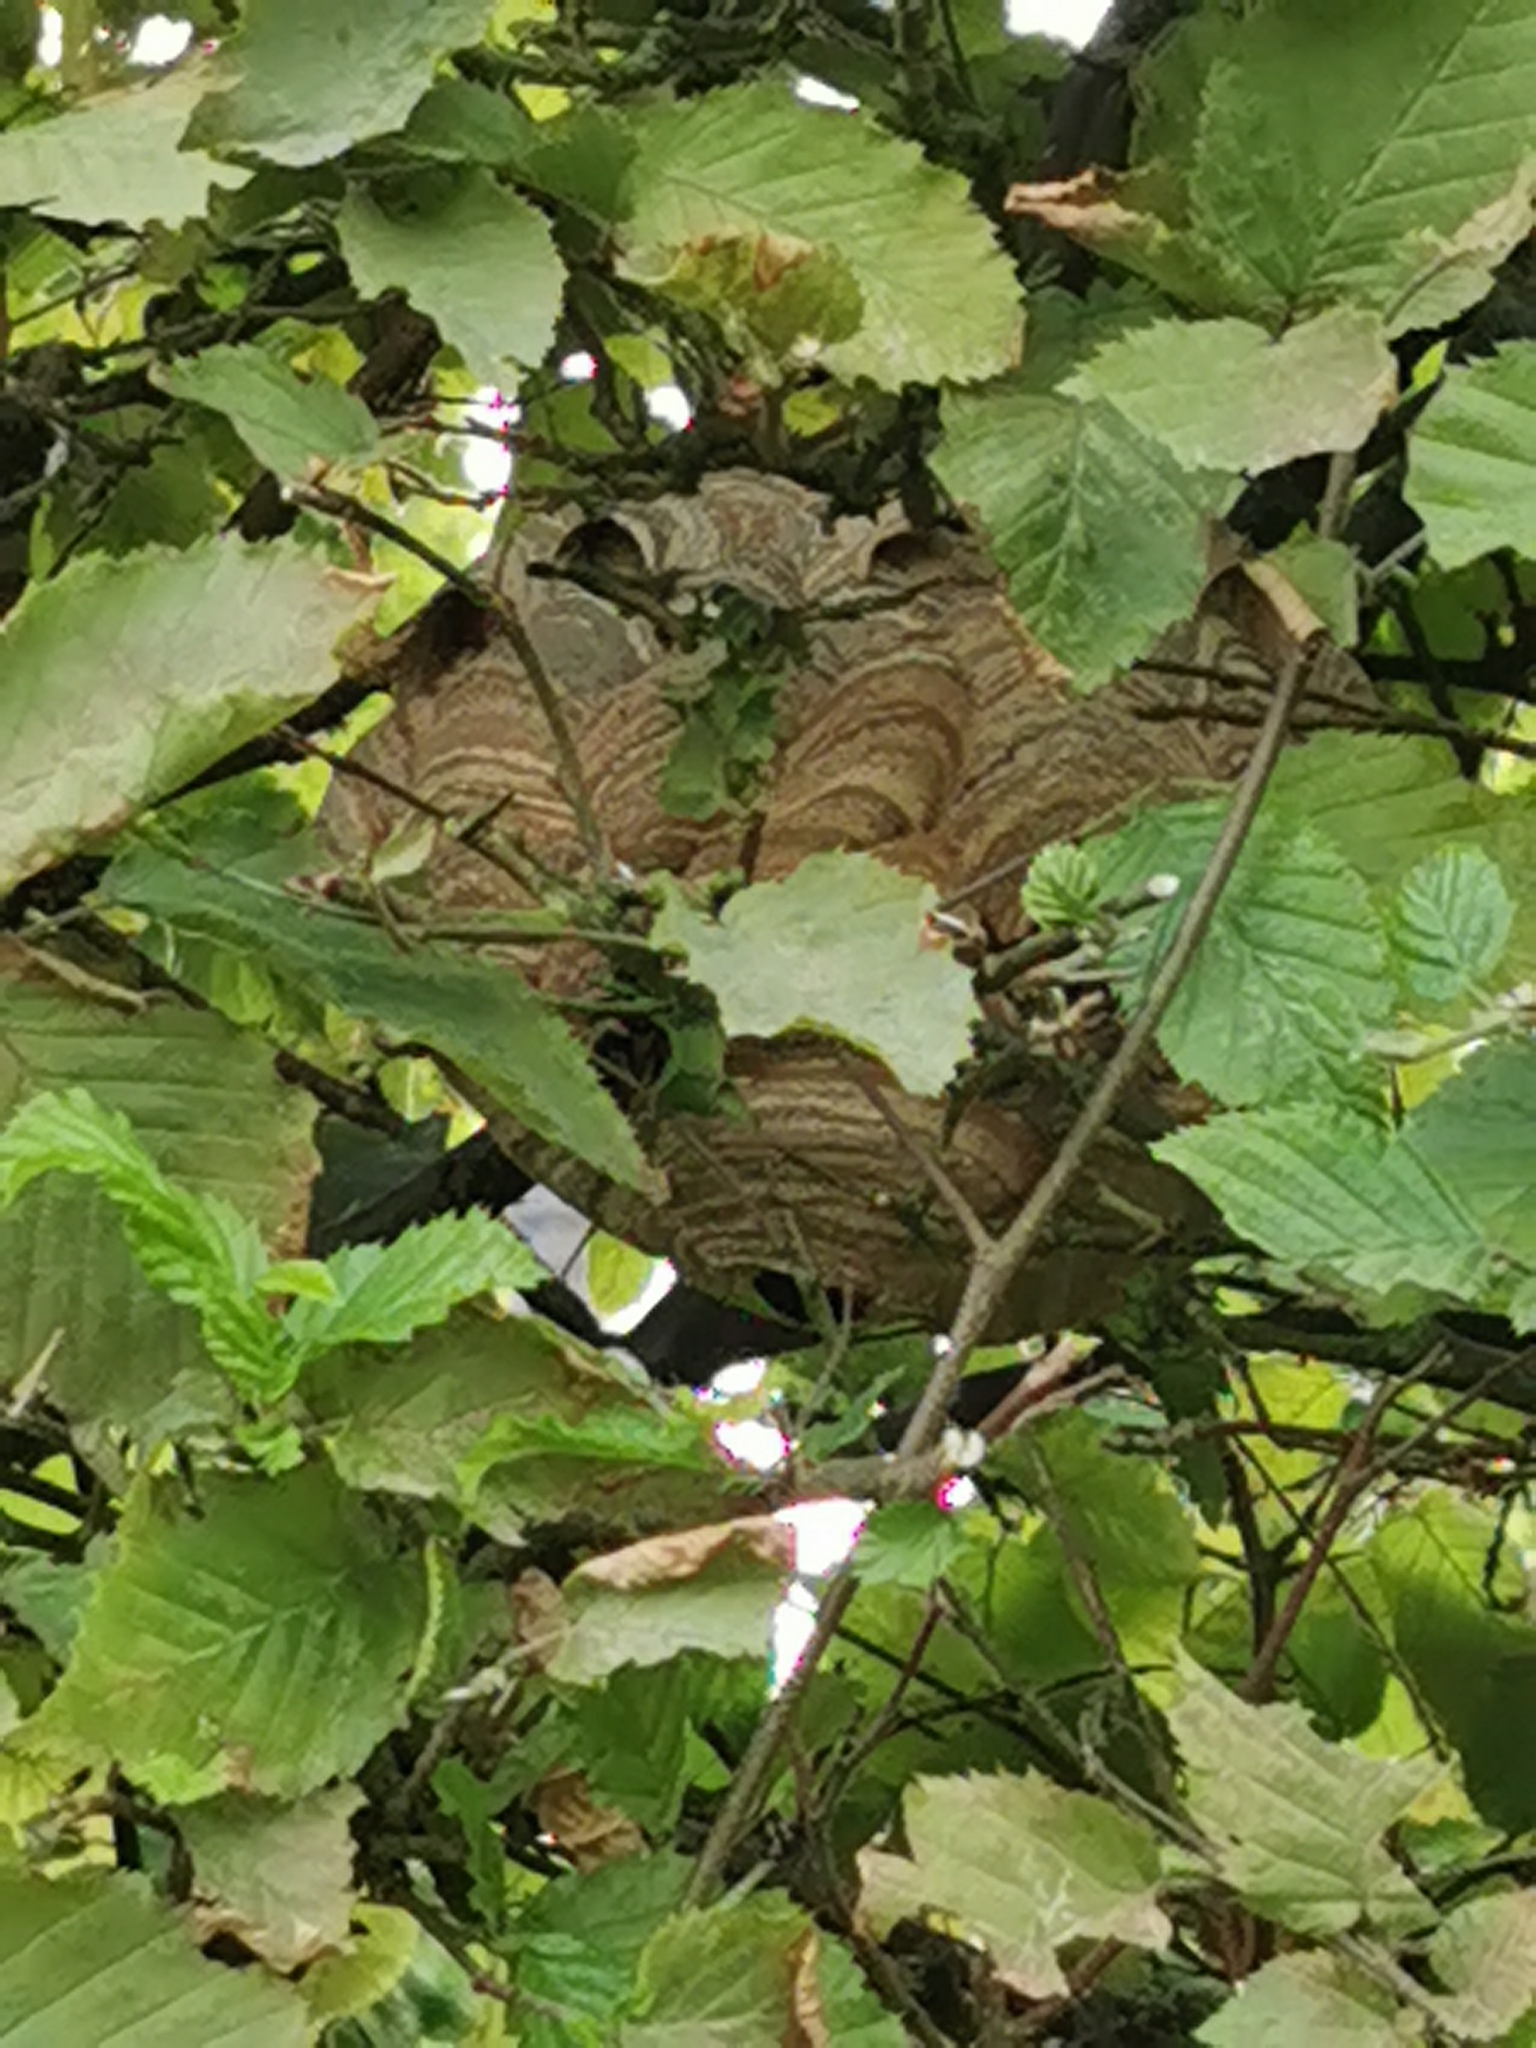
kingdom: Animalia
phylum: Arthropoda
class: Insecta
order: Hymenoptera
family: Vespidae
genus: Vespa
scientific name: Vespa velutina
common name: Asian hornet
